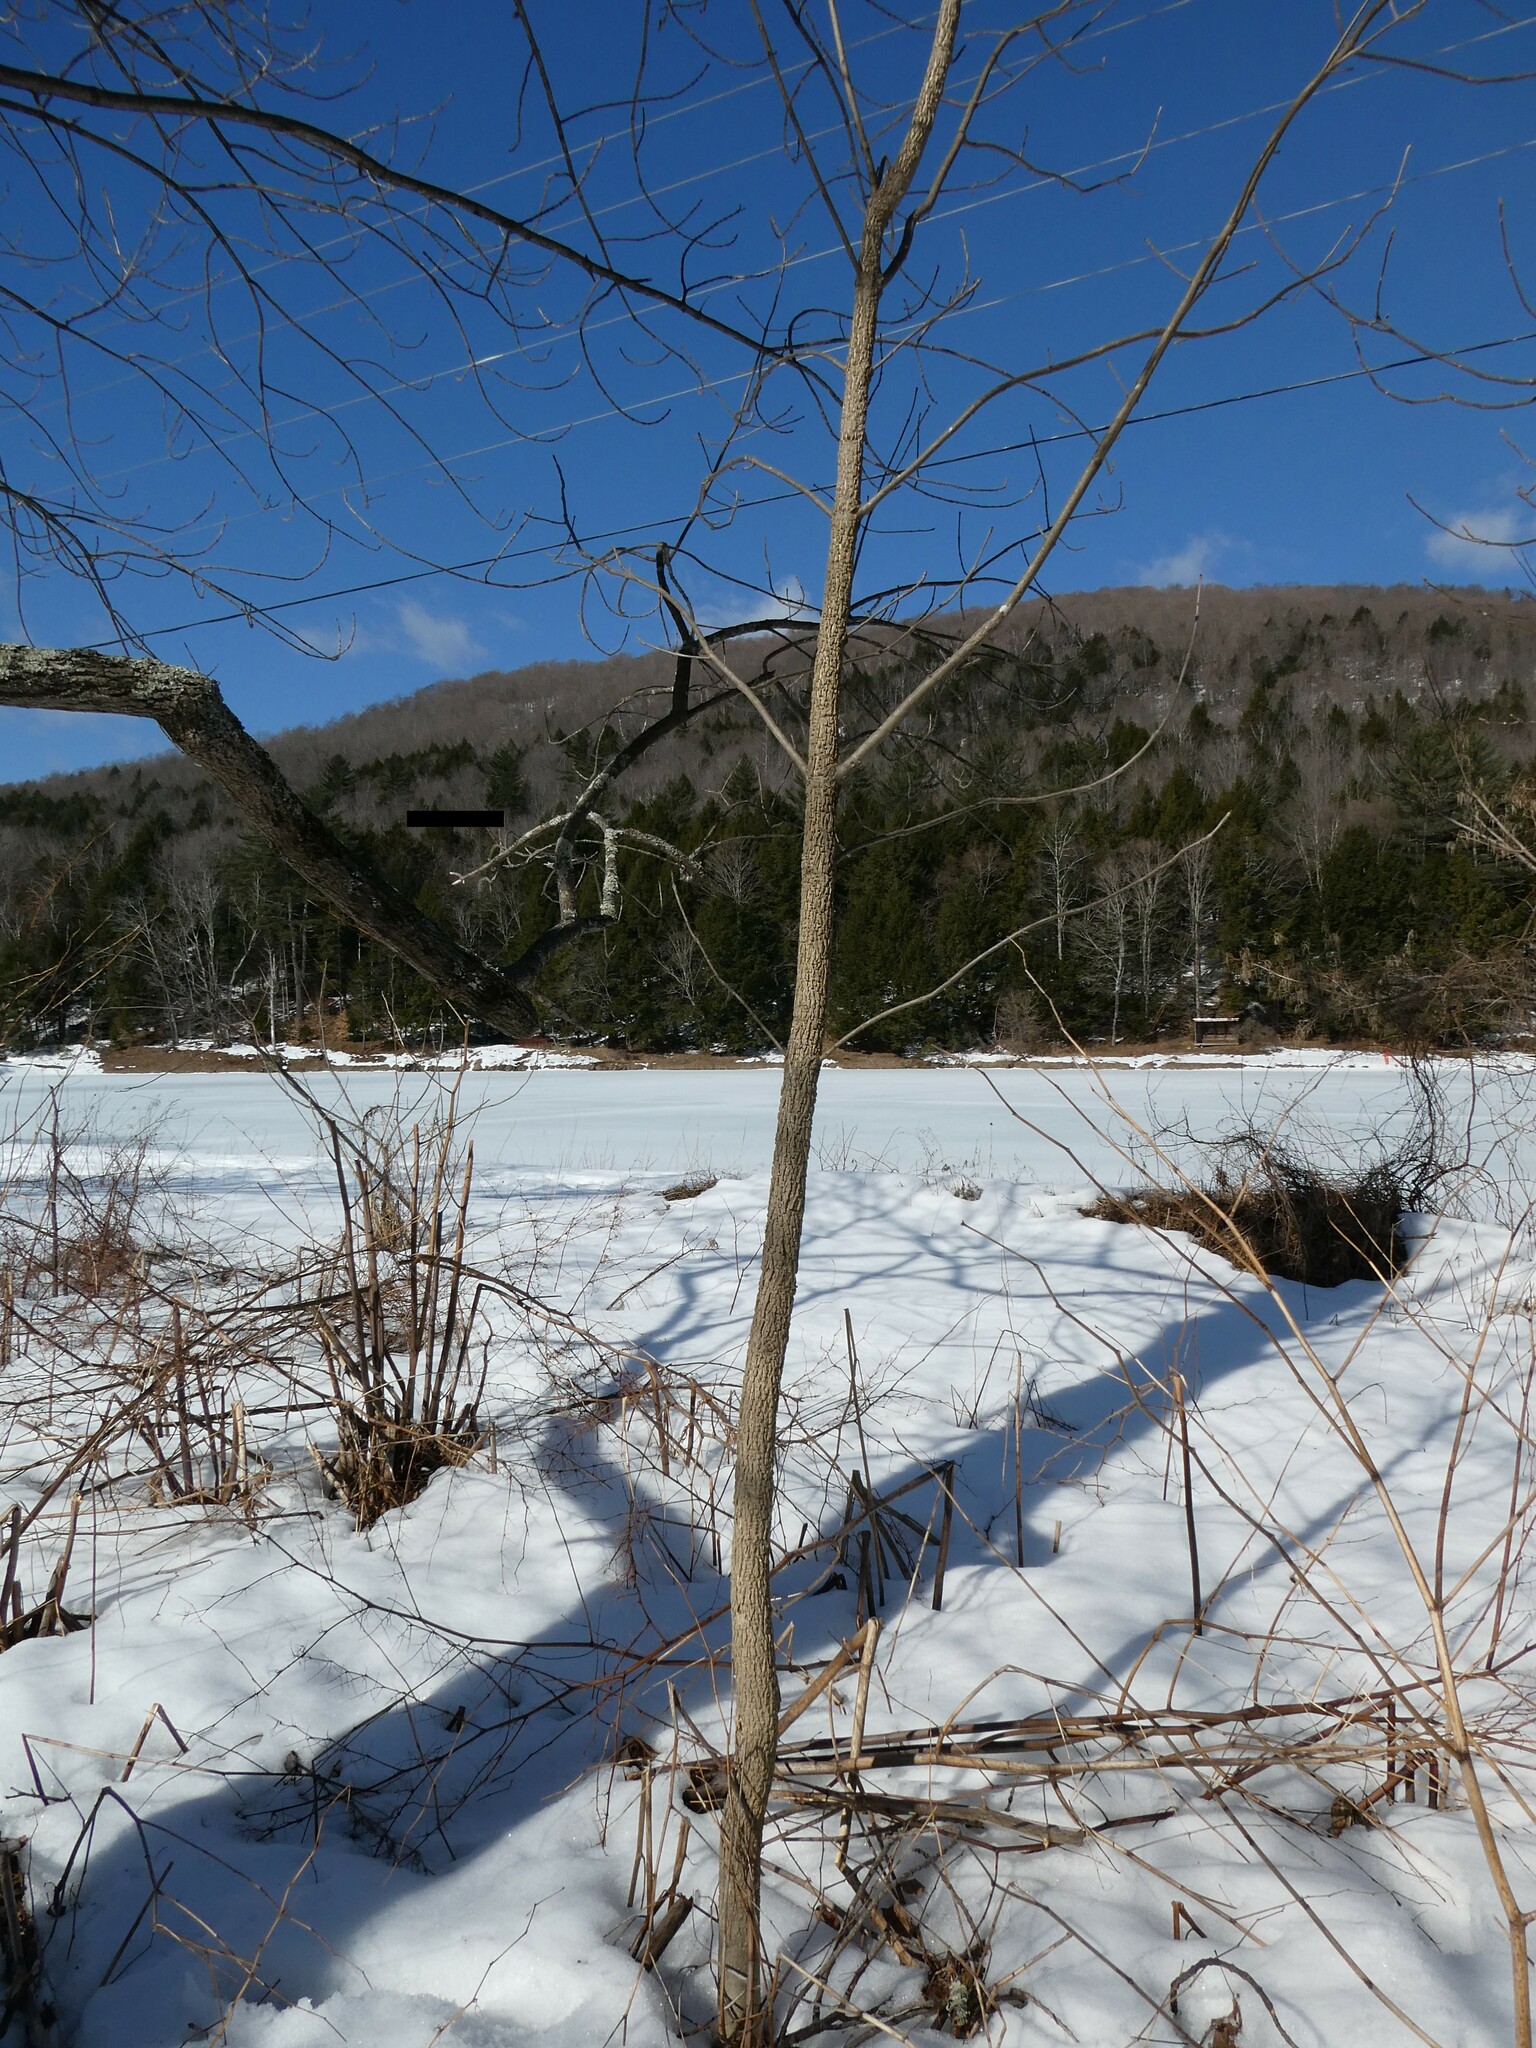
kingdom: Plantae
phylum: Tracheophyta
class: Magnoliopsida
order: Lamiales
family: Oleaceae
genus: Fraxinus
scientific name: Fraxinus nigra
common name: Black ash
